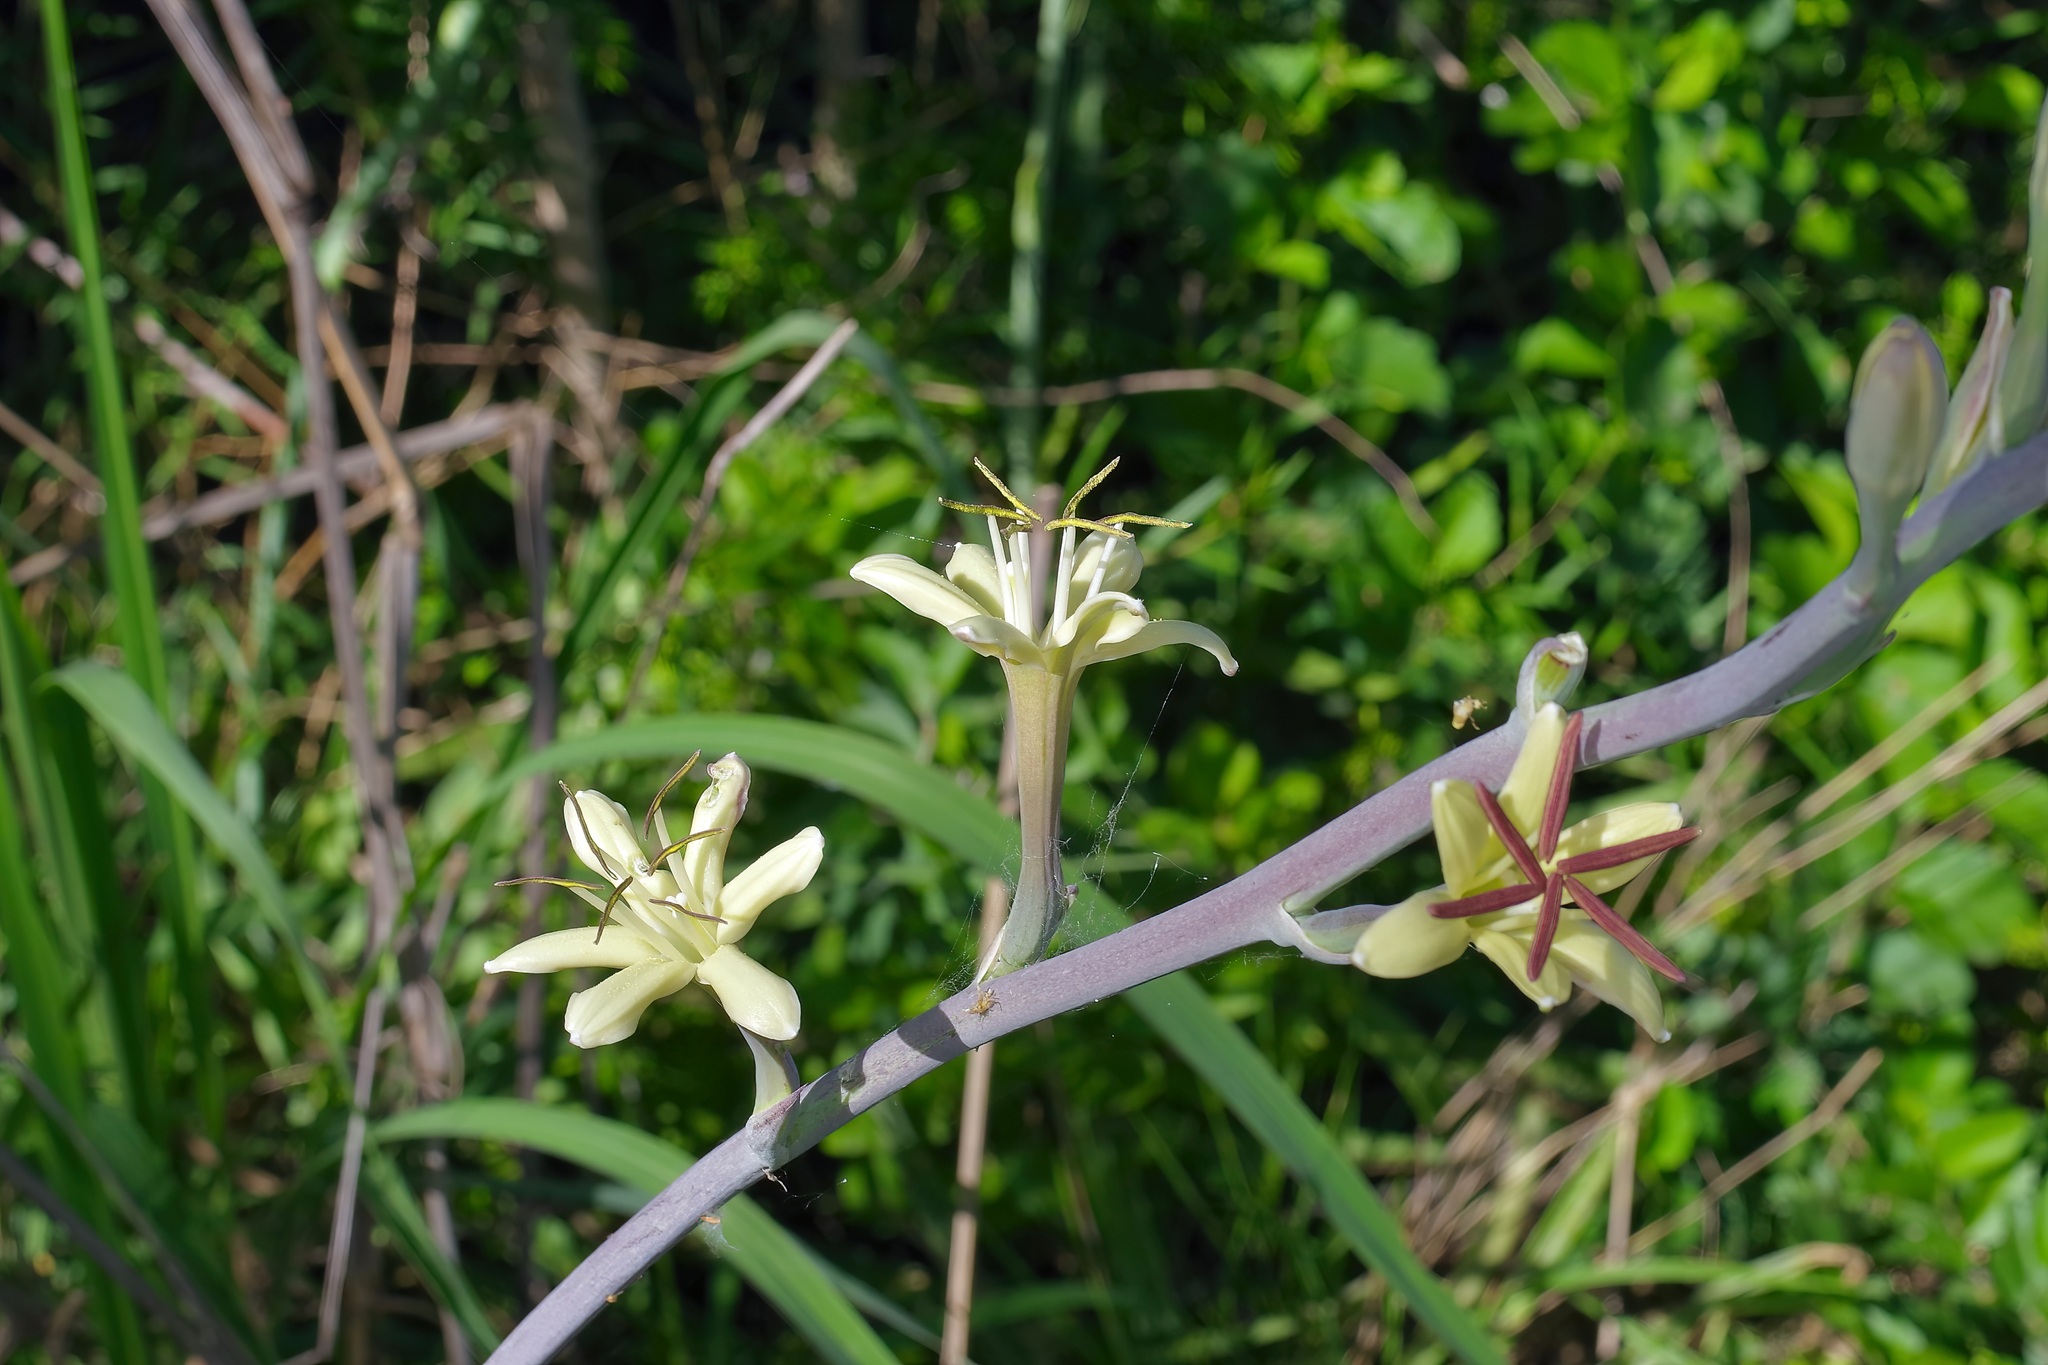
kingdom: Plantae
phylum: Tracheophyta
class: Liliopsida
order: Asparagales
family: Asparagaceae
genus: Agave
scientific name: Agave maculata
